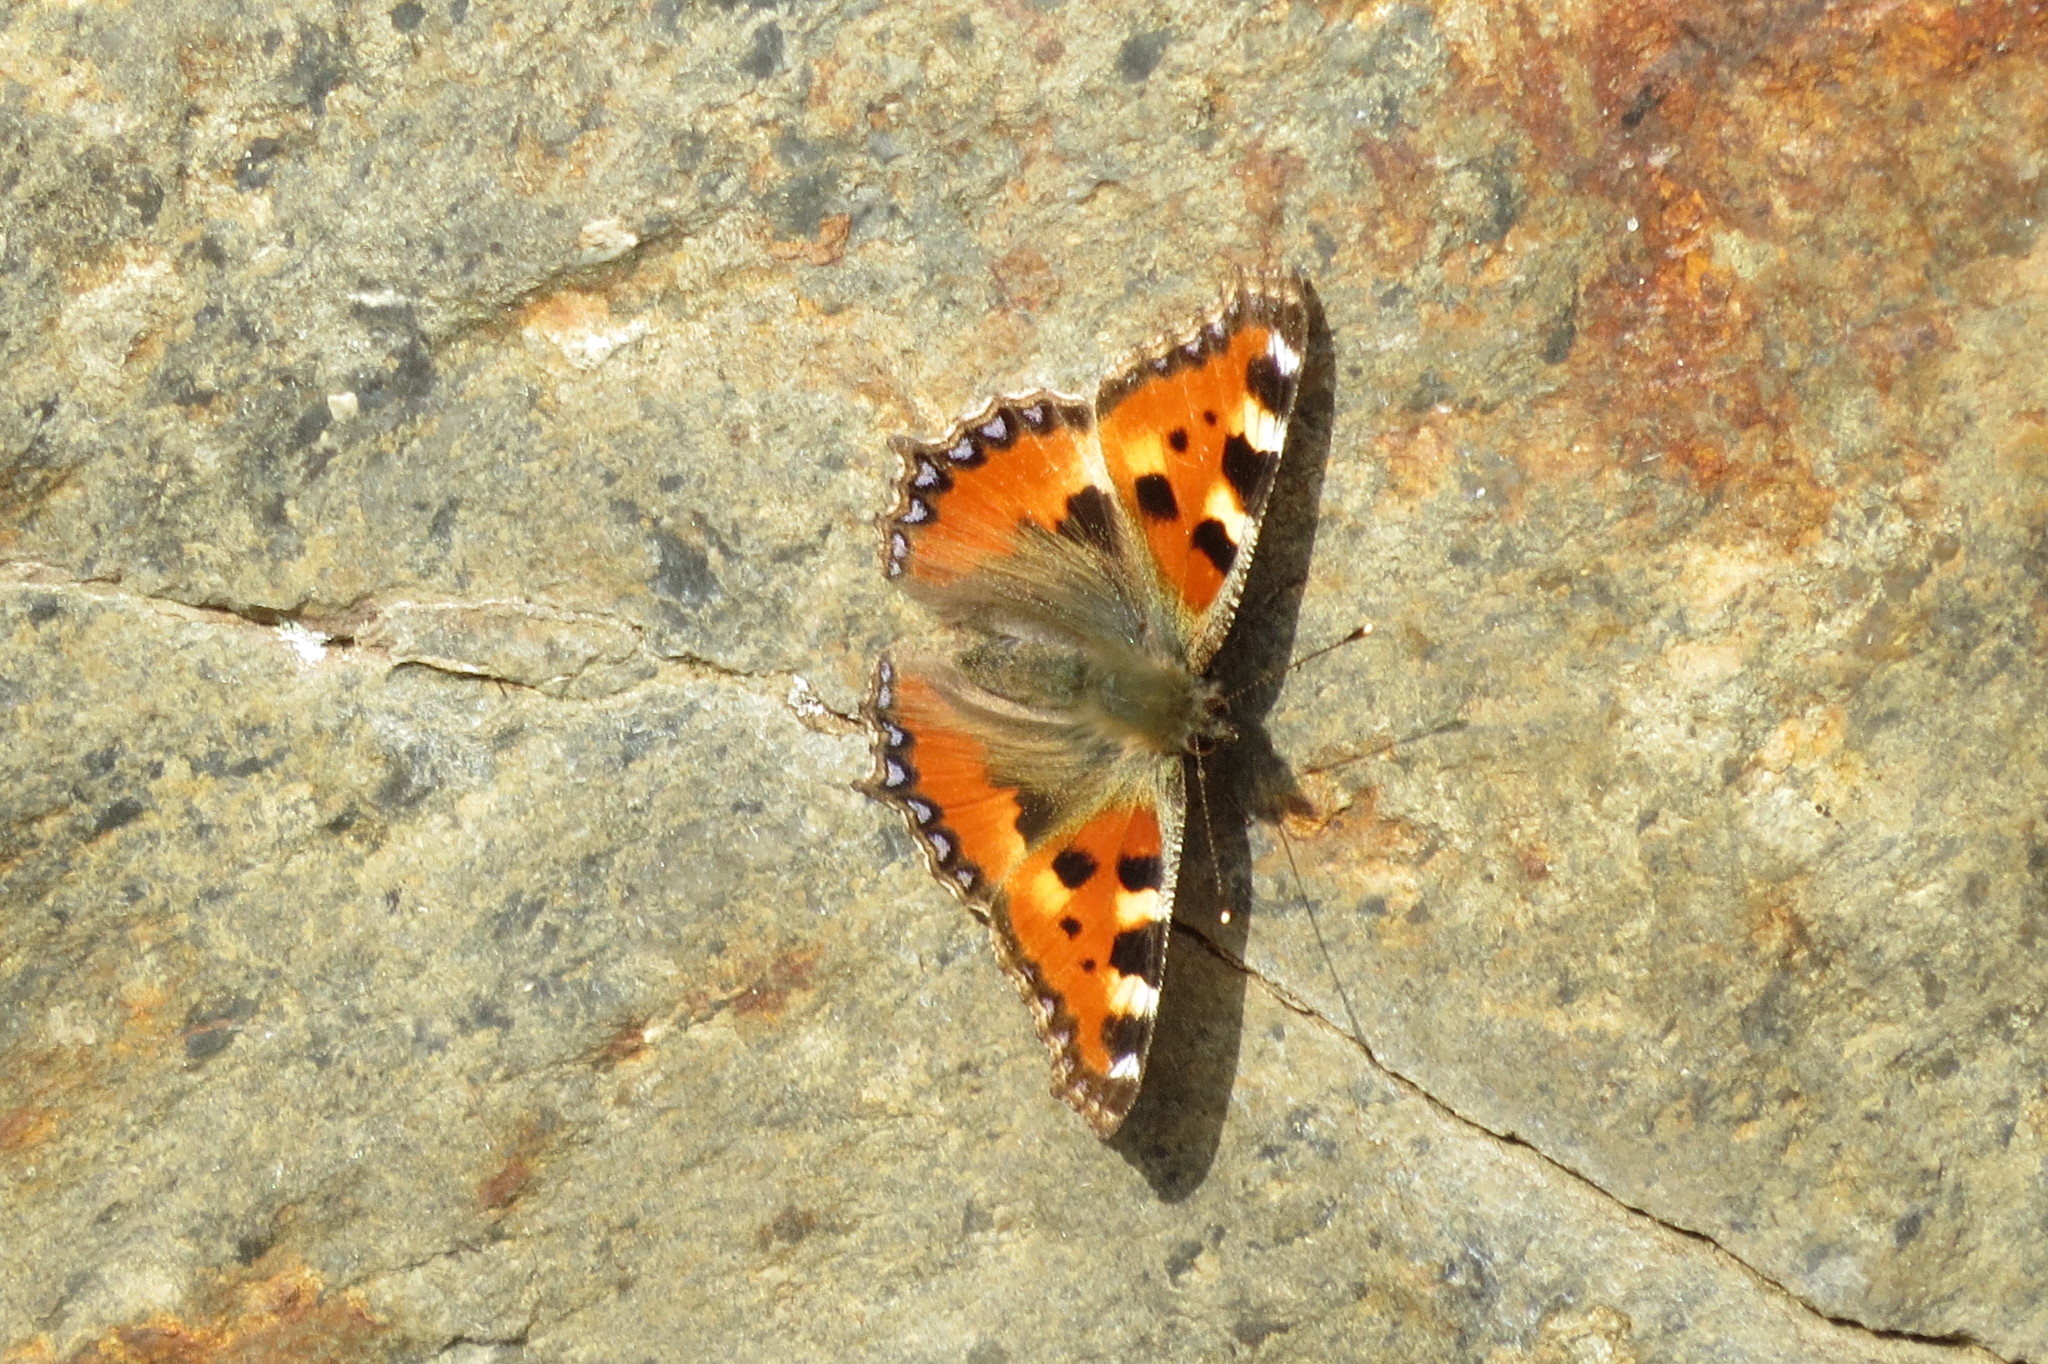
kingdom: Animalia
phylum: Arthropoda
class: Insecta
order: Lepidoptera
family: Nymphalidae
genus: Aglais
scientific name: Aglais urticae
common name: Small tortoiseshell
